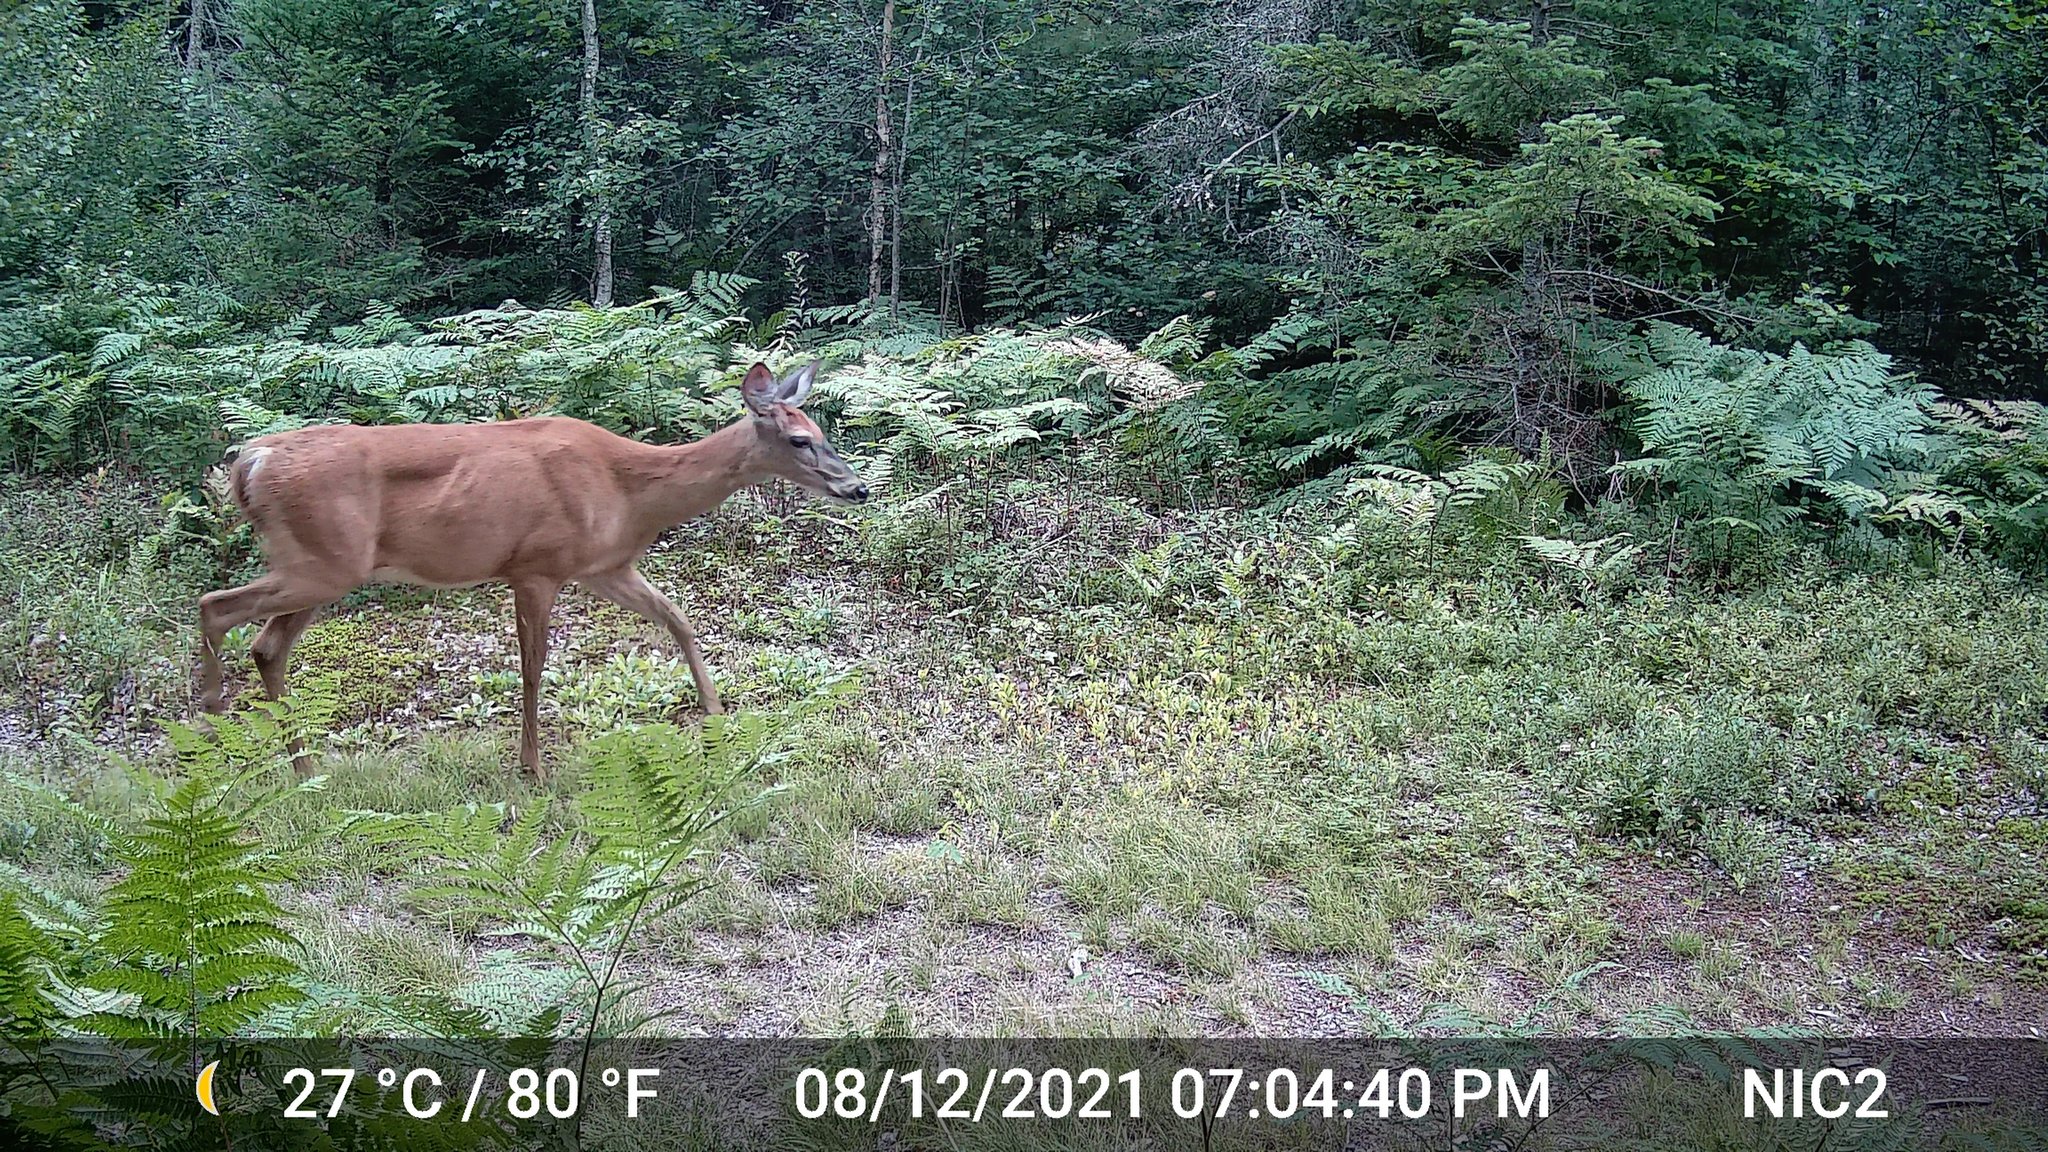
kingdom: Animalia
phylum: Chordata
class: Mammalia
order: Artiodactyla
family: Cervidae
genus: Odocoileus
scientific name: Odocoileus virginianus
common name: White-tailed deer
